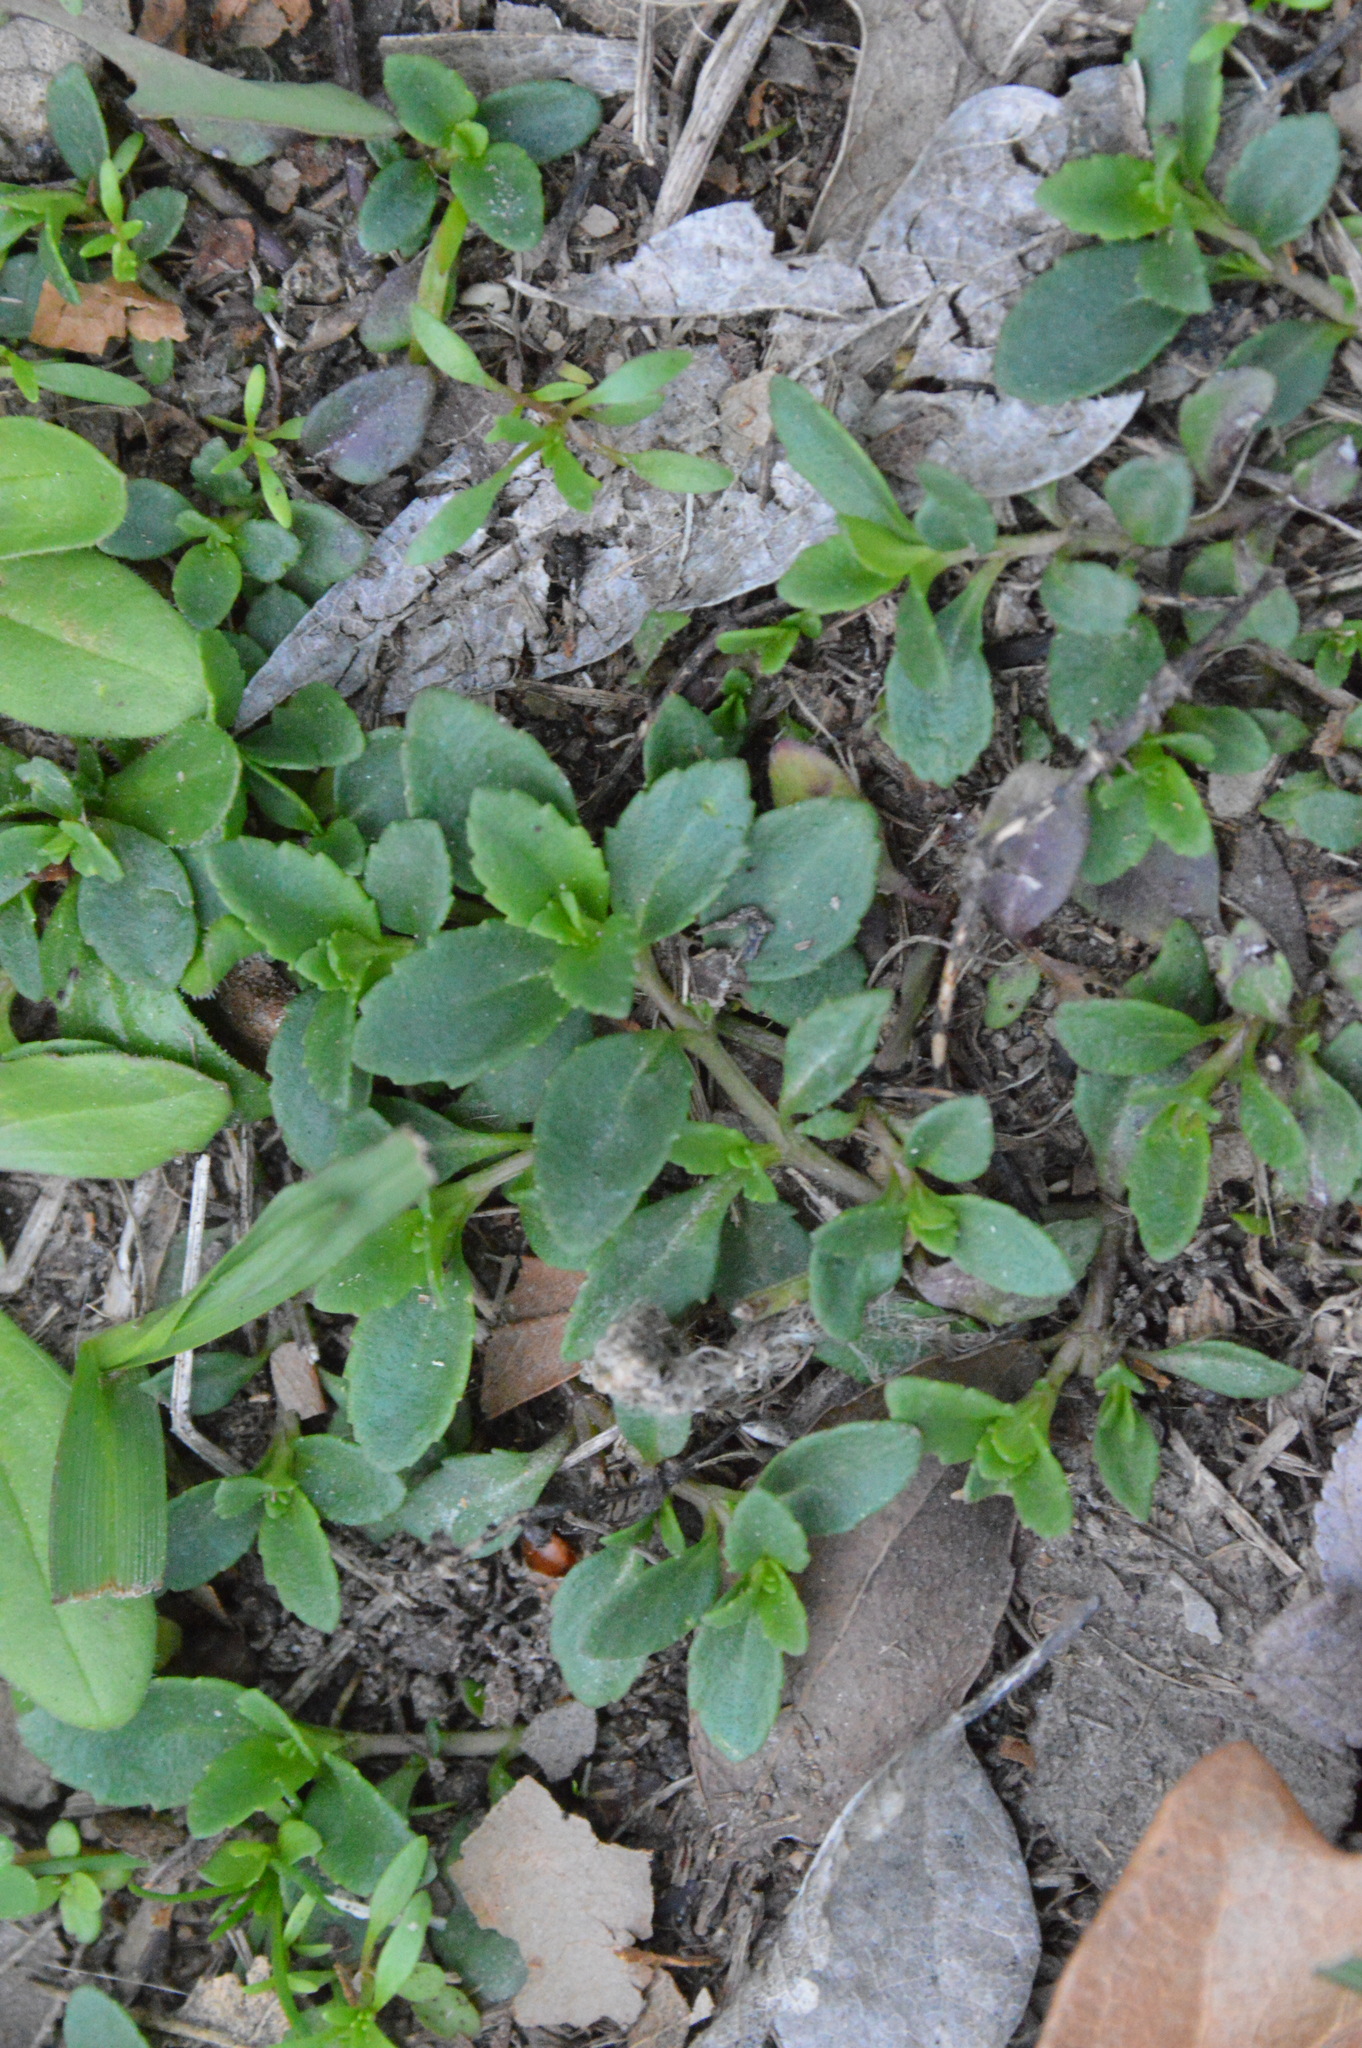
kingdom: Plantae
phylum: Tracheophyta
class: Magnoliopsida
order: Lamiales
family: Plantaginaceae
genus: Mecardonia
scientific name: Mecardonia procumbens
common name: Baby jump-up
